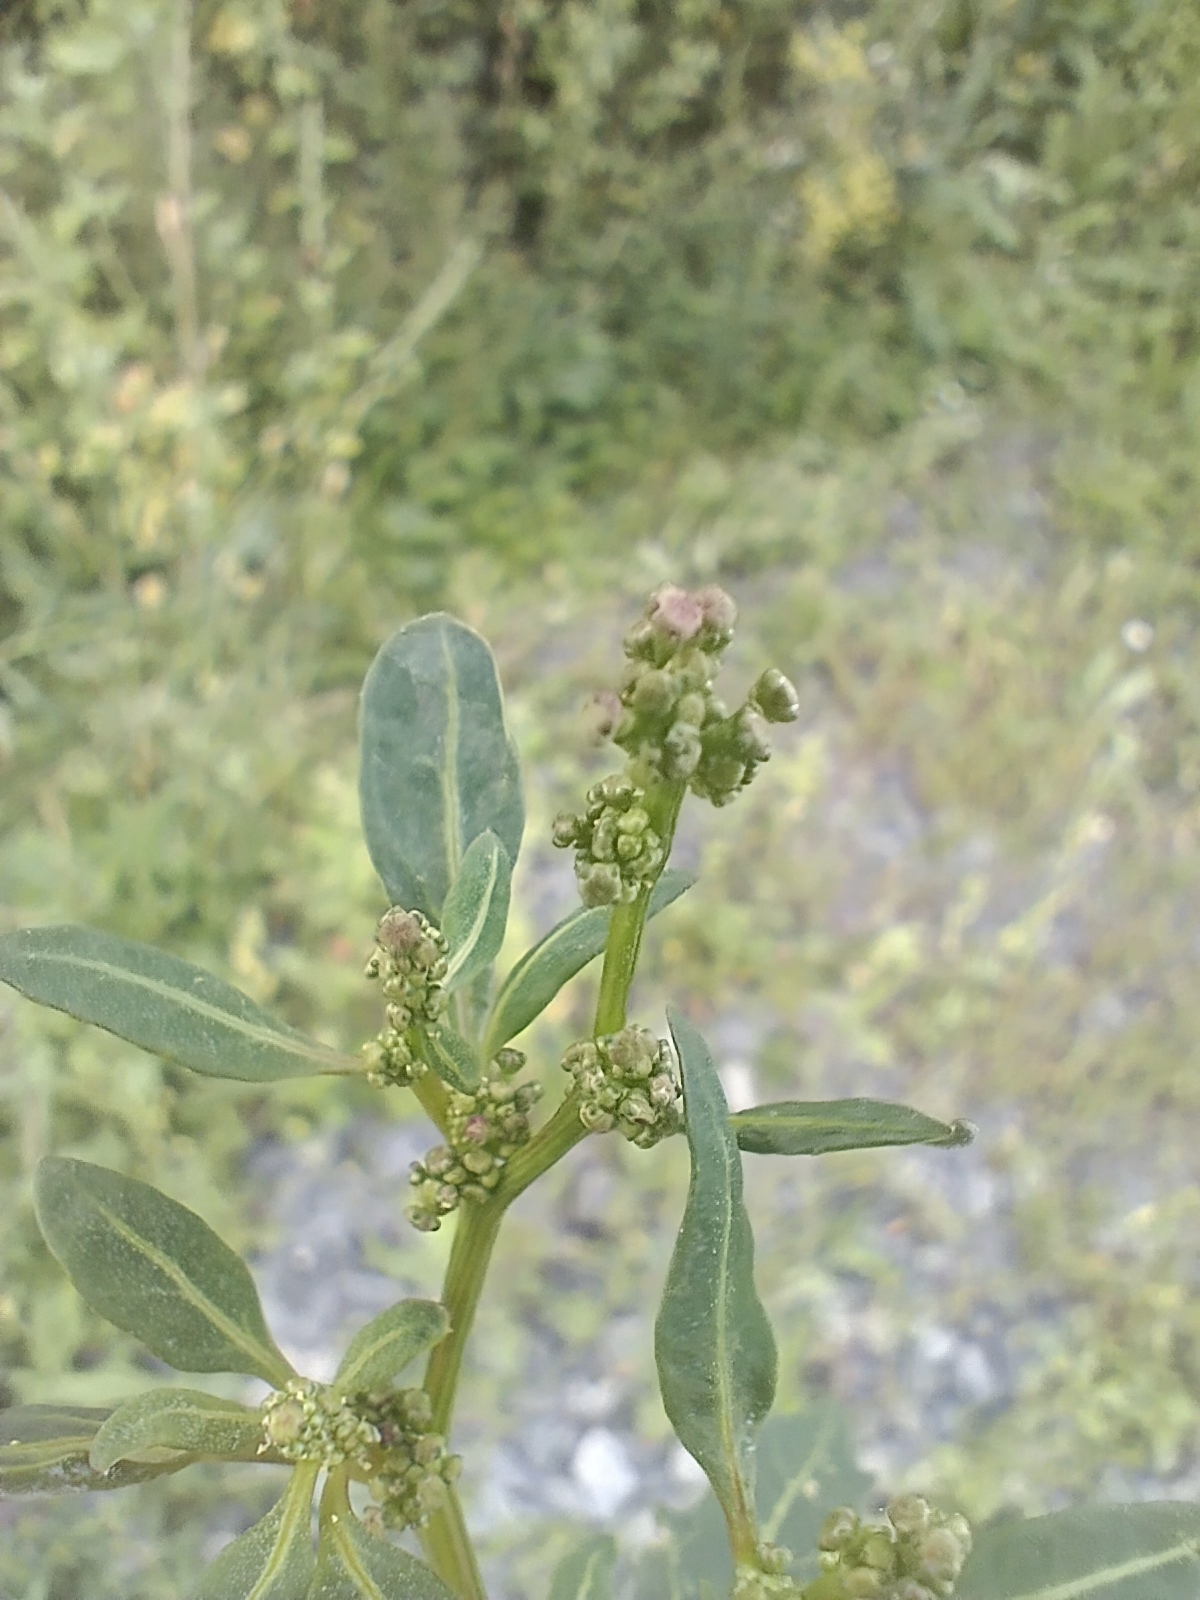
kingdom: Plantae
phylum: Tracheophyta
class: Magnoliopsida
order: Caryophyllales
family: Amaranthaceae
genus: Oxybasis
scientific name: Oxybasis glauca
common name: Glaucous goosefoot
